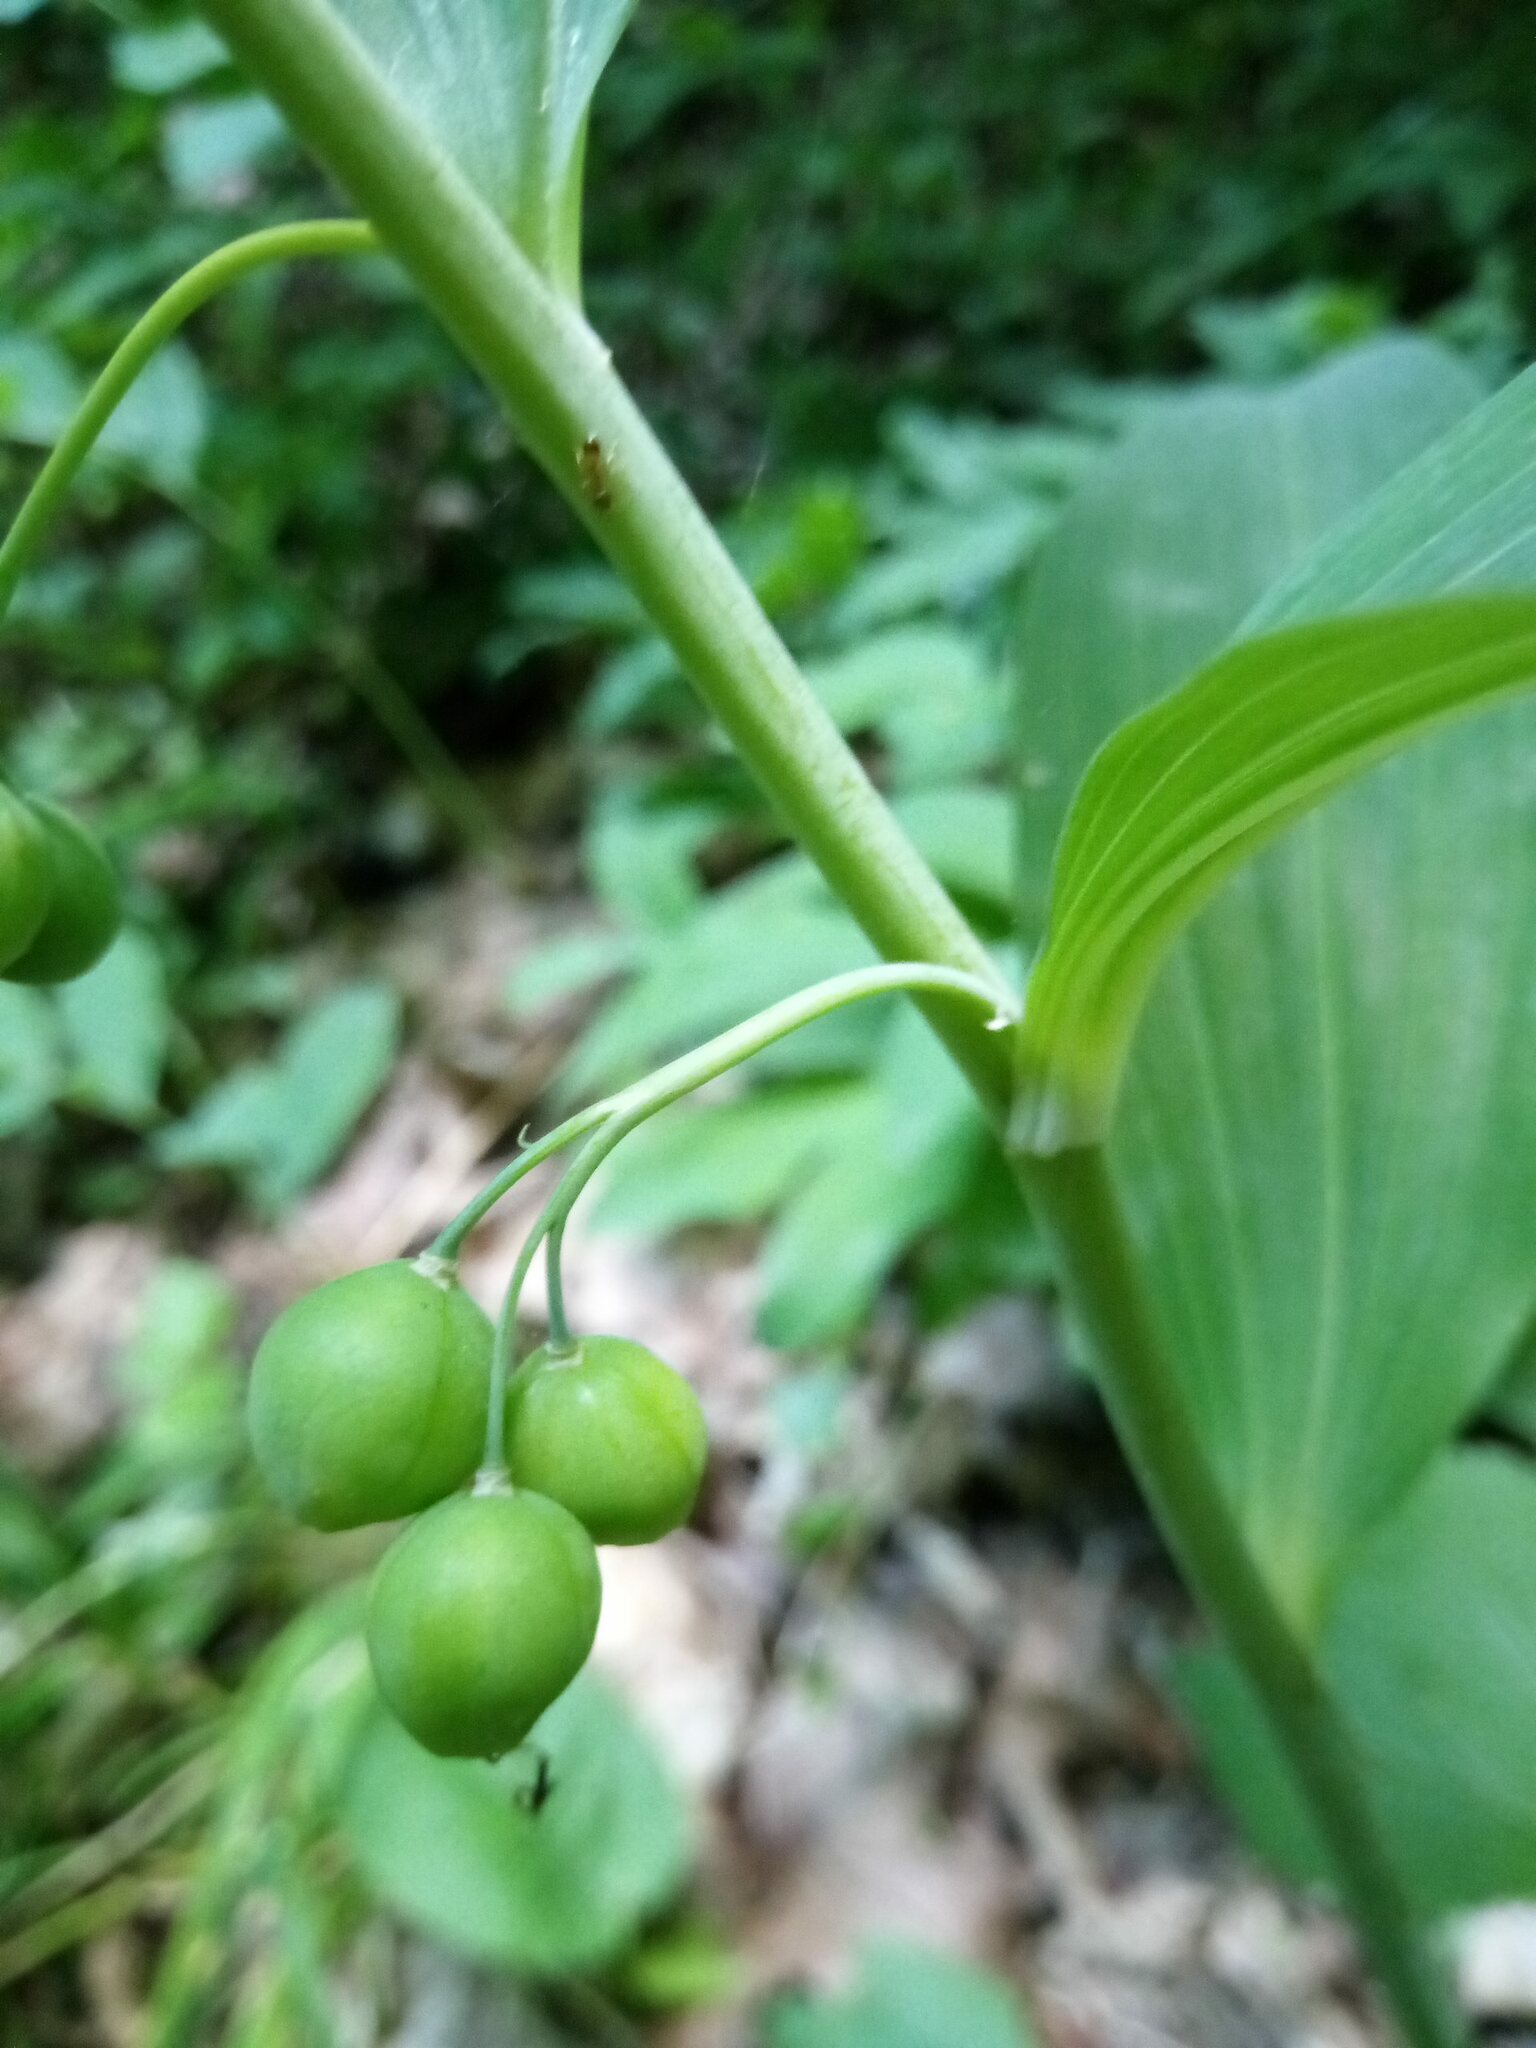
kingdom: Plantae
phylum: Tracheophyta
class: Liliopsida
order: Asparagales
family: Asparagaceae
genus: Polygonatum
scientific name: Polygonatum multiflorum
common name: Solomon's-seal
